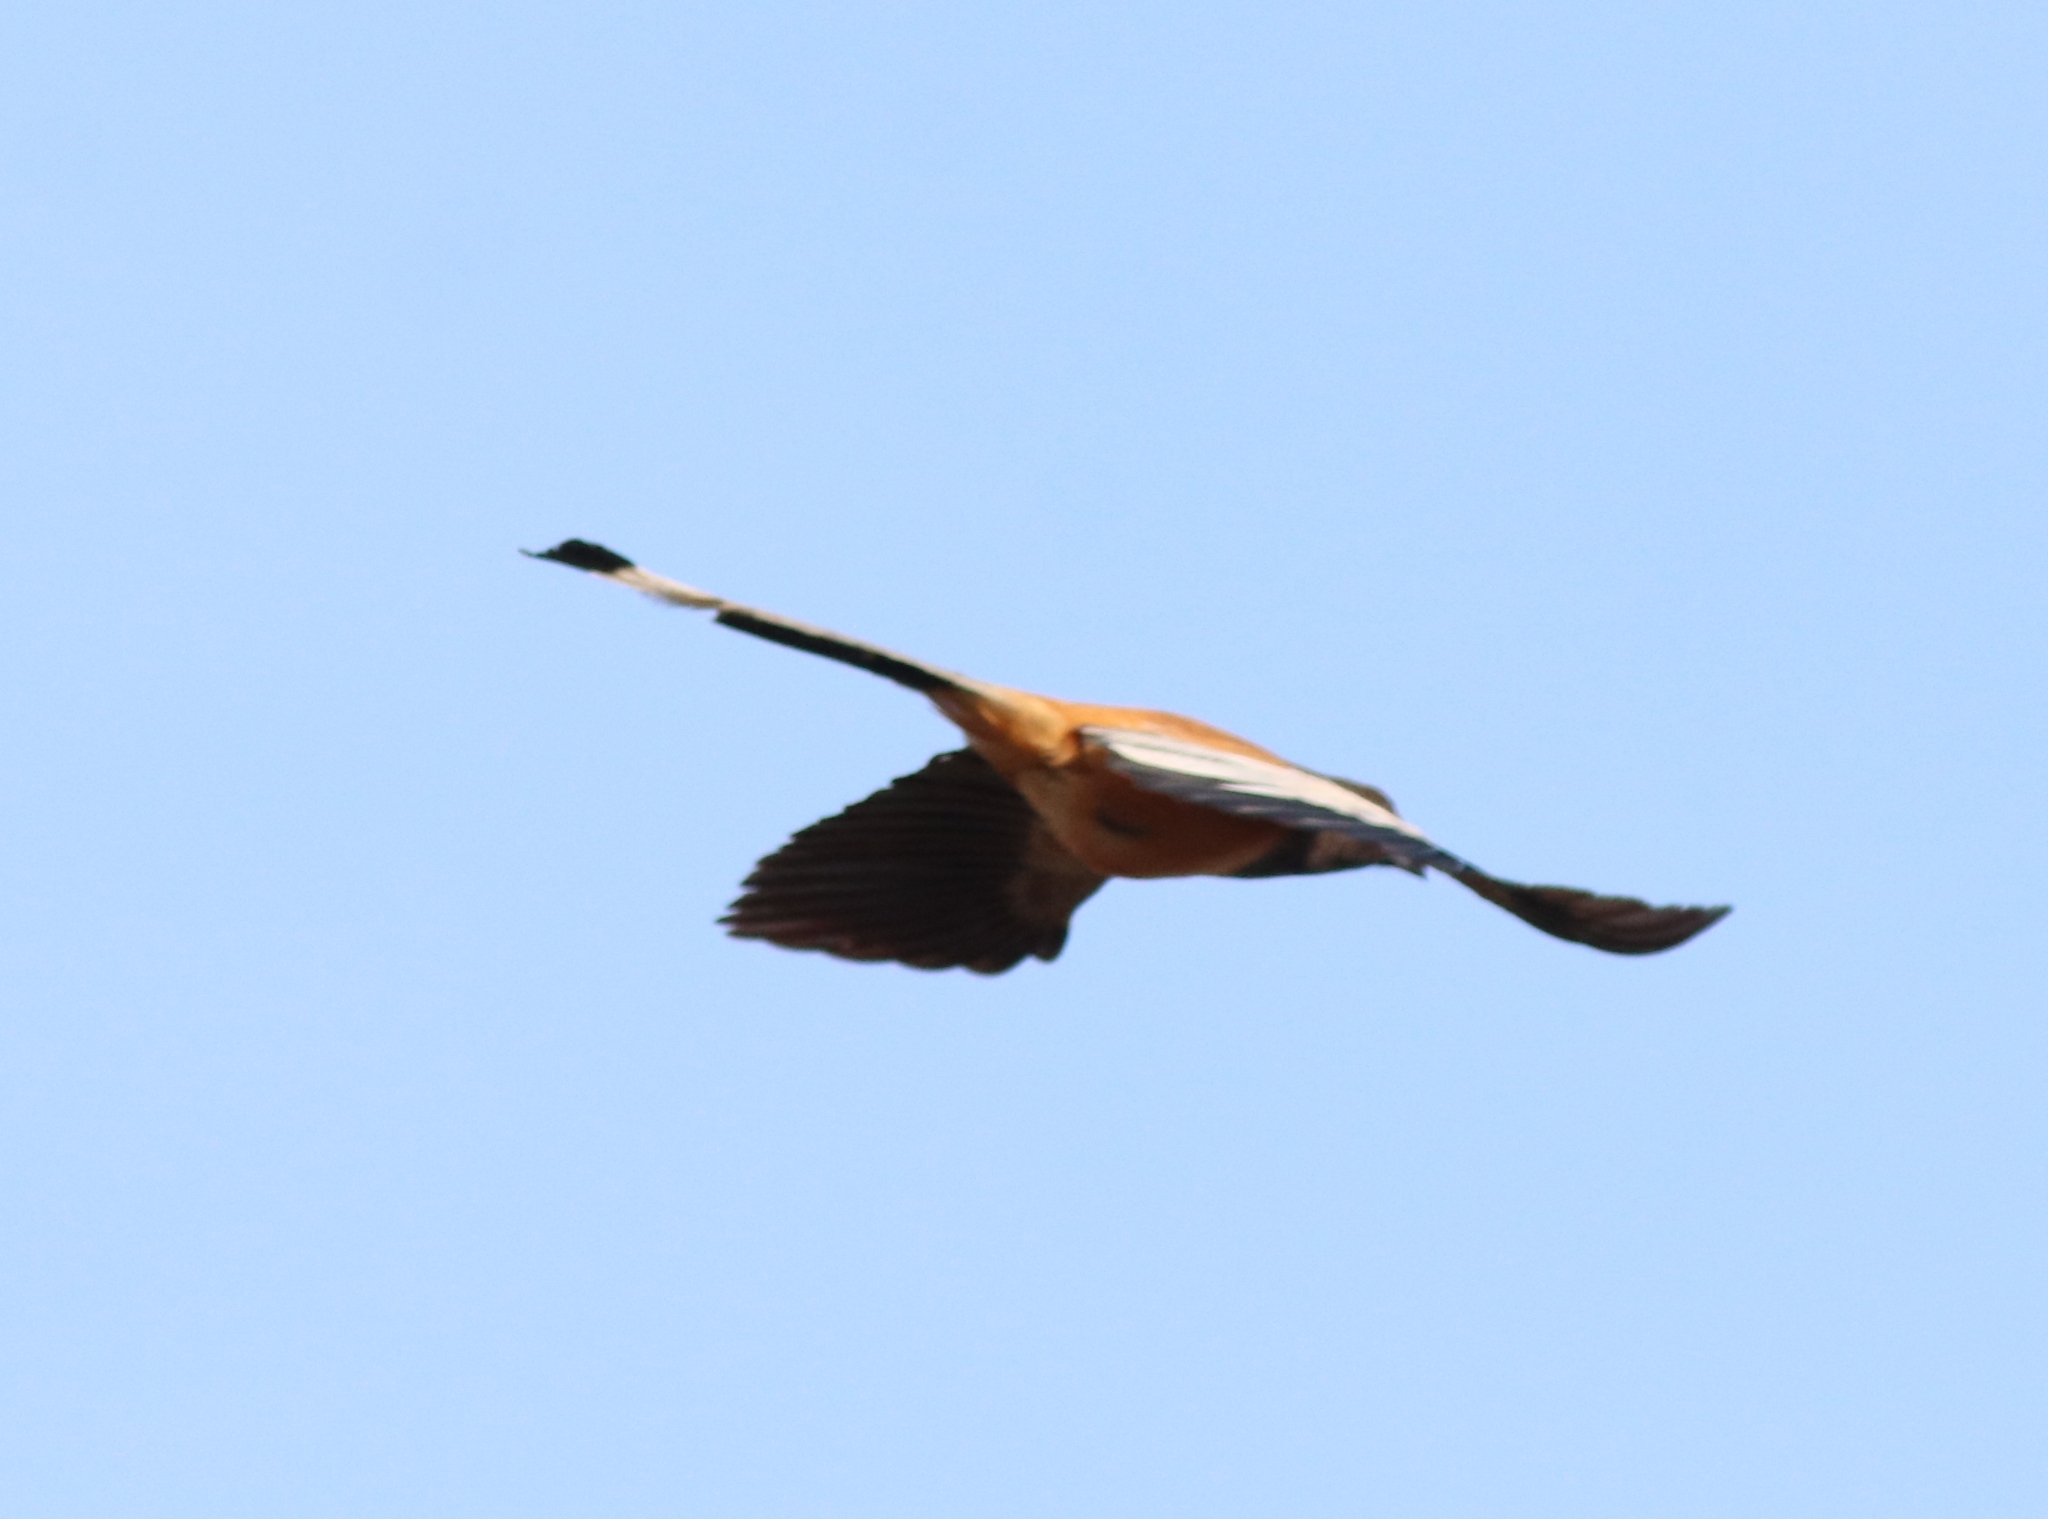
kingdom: Animalia
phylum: Chordata
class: Aves
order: Passeriformes
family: Corvidae
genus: Dendrocitta
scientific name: Dendrocitta vagabunda
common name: Rufous treepie
